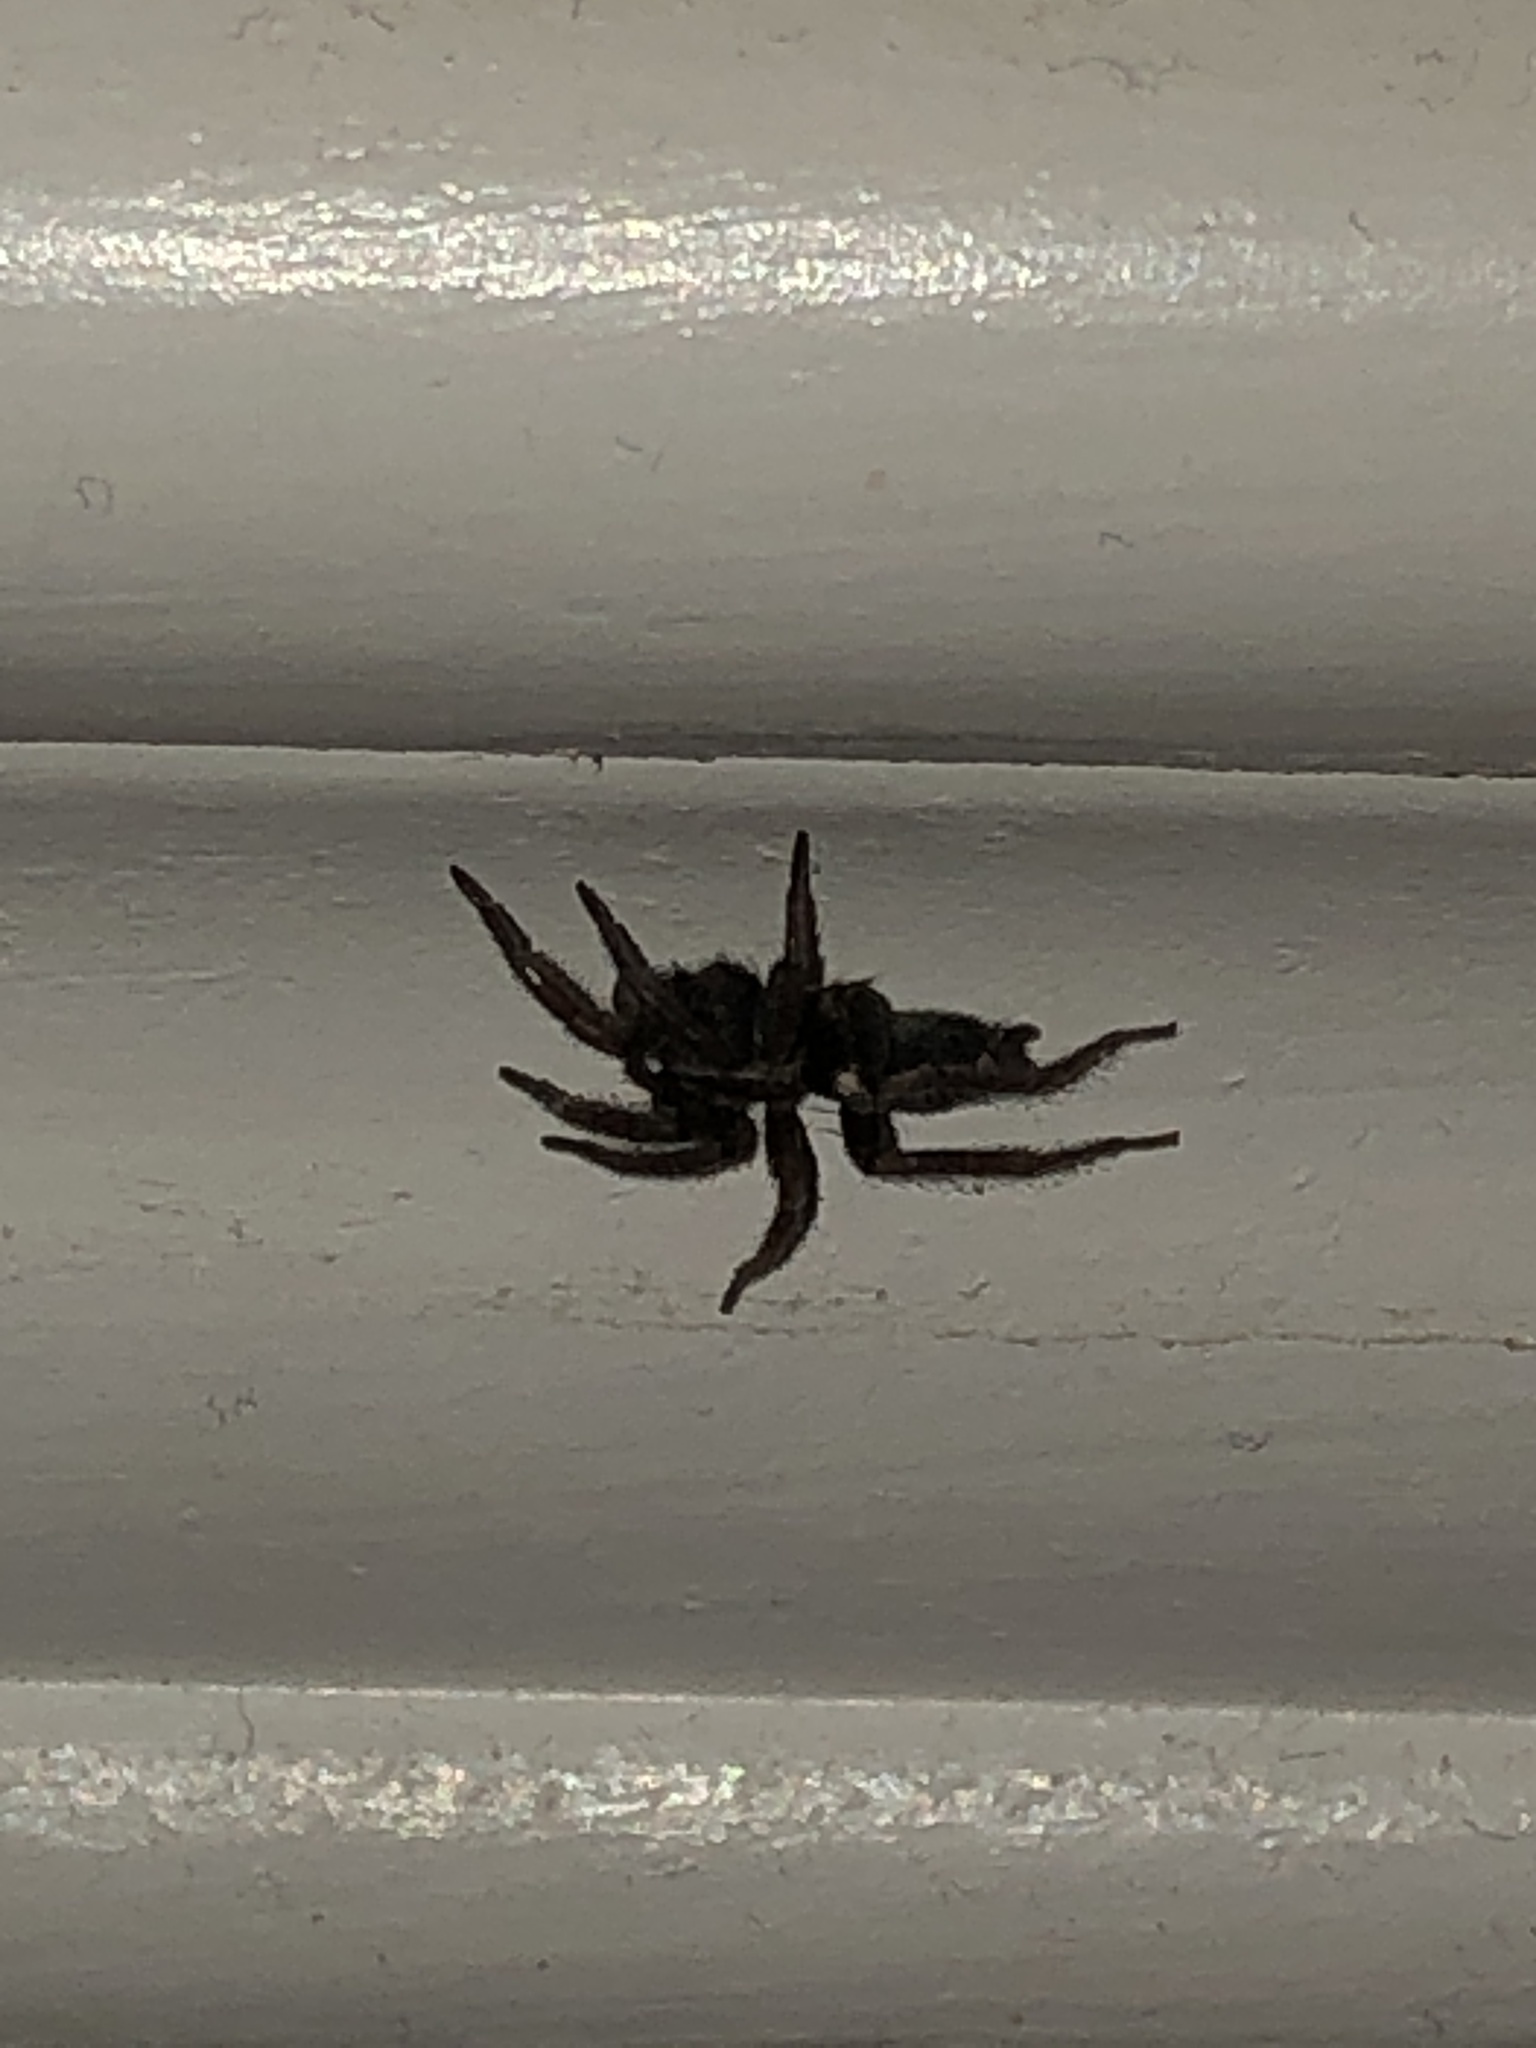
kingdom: Animalia
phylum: Arthropoda
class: Arachnida
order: Araneae
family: Gnaphosidae
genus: Herpyllus
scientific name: Herpyllus ecclesiasticus
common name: Eastern parson spider
